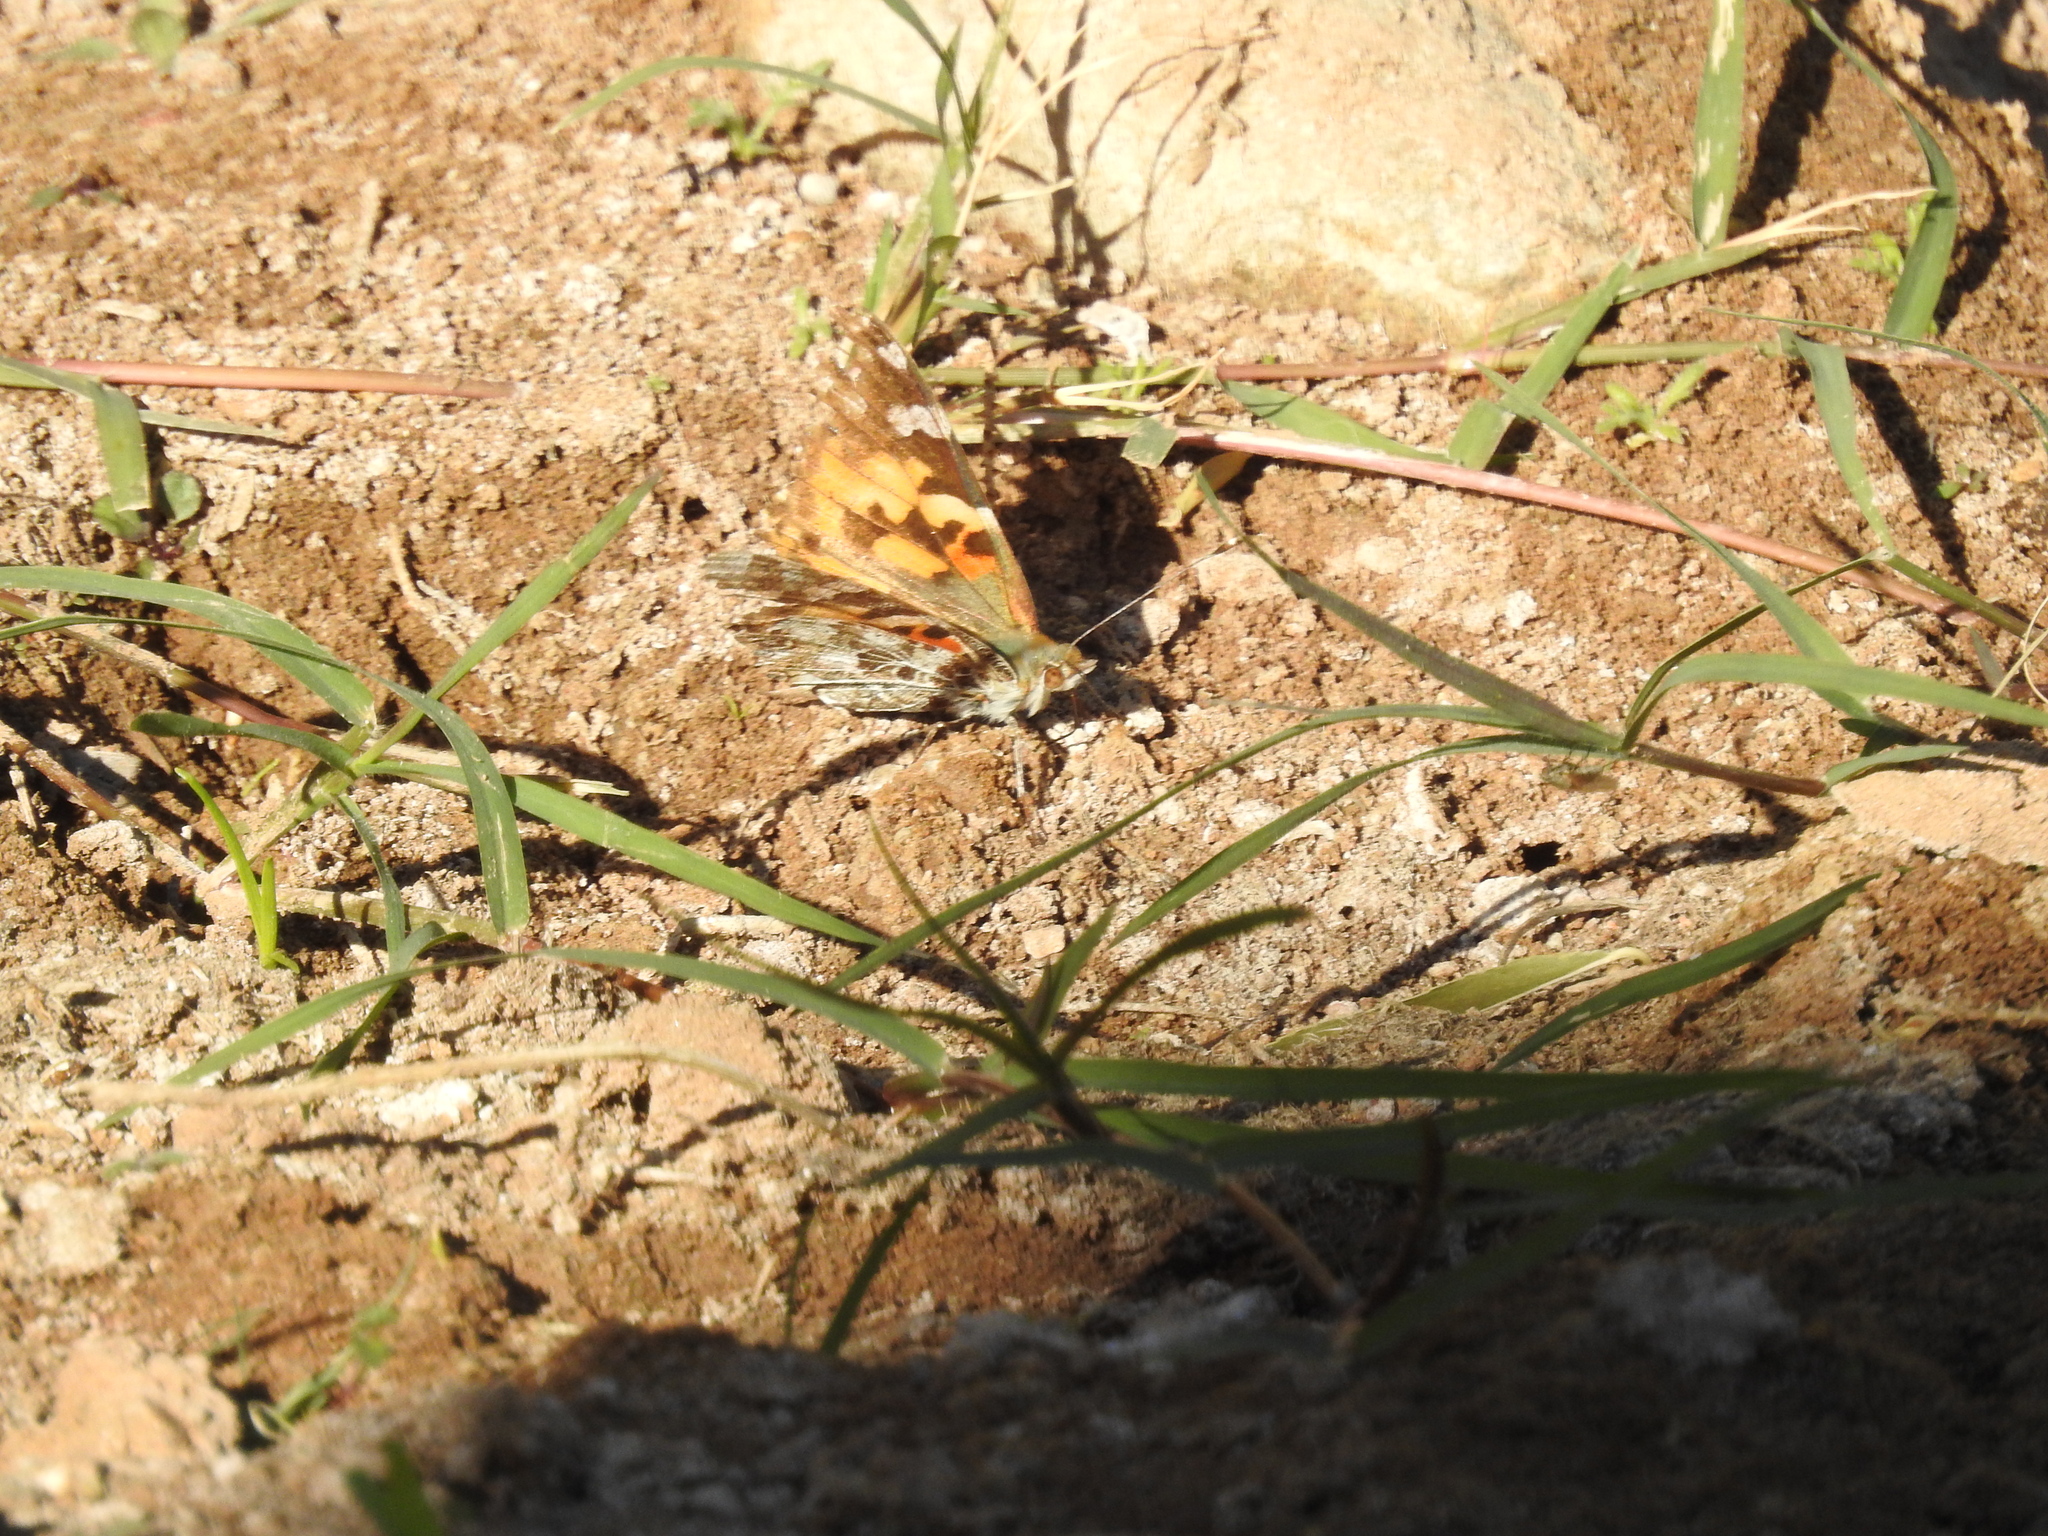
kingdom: Animalia
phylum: Arthropoda
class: Insecta
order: Lepidoptera
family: Nymphalidae
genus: Vanessa
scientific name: Vanessa cardui
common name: Painted lady
